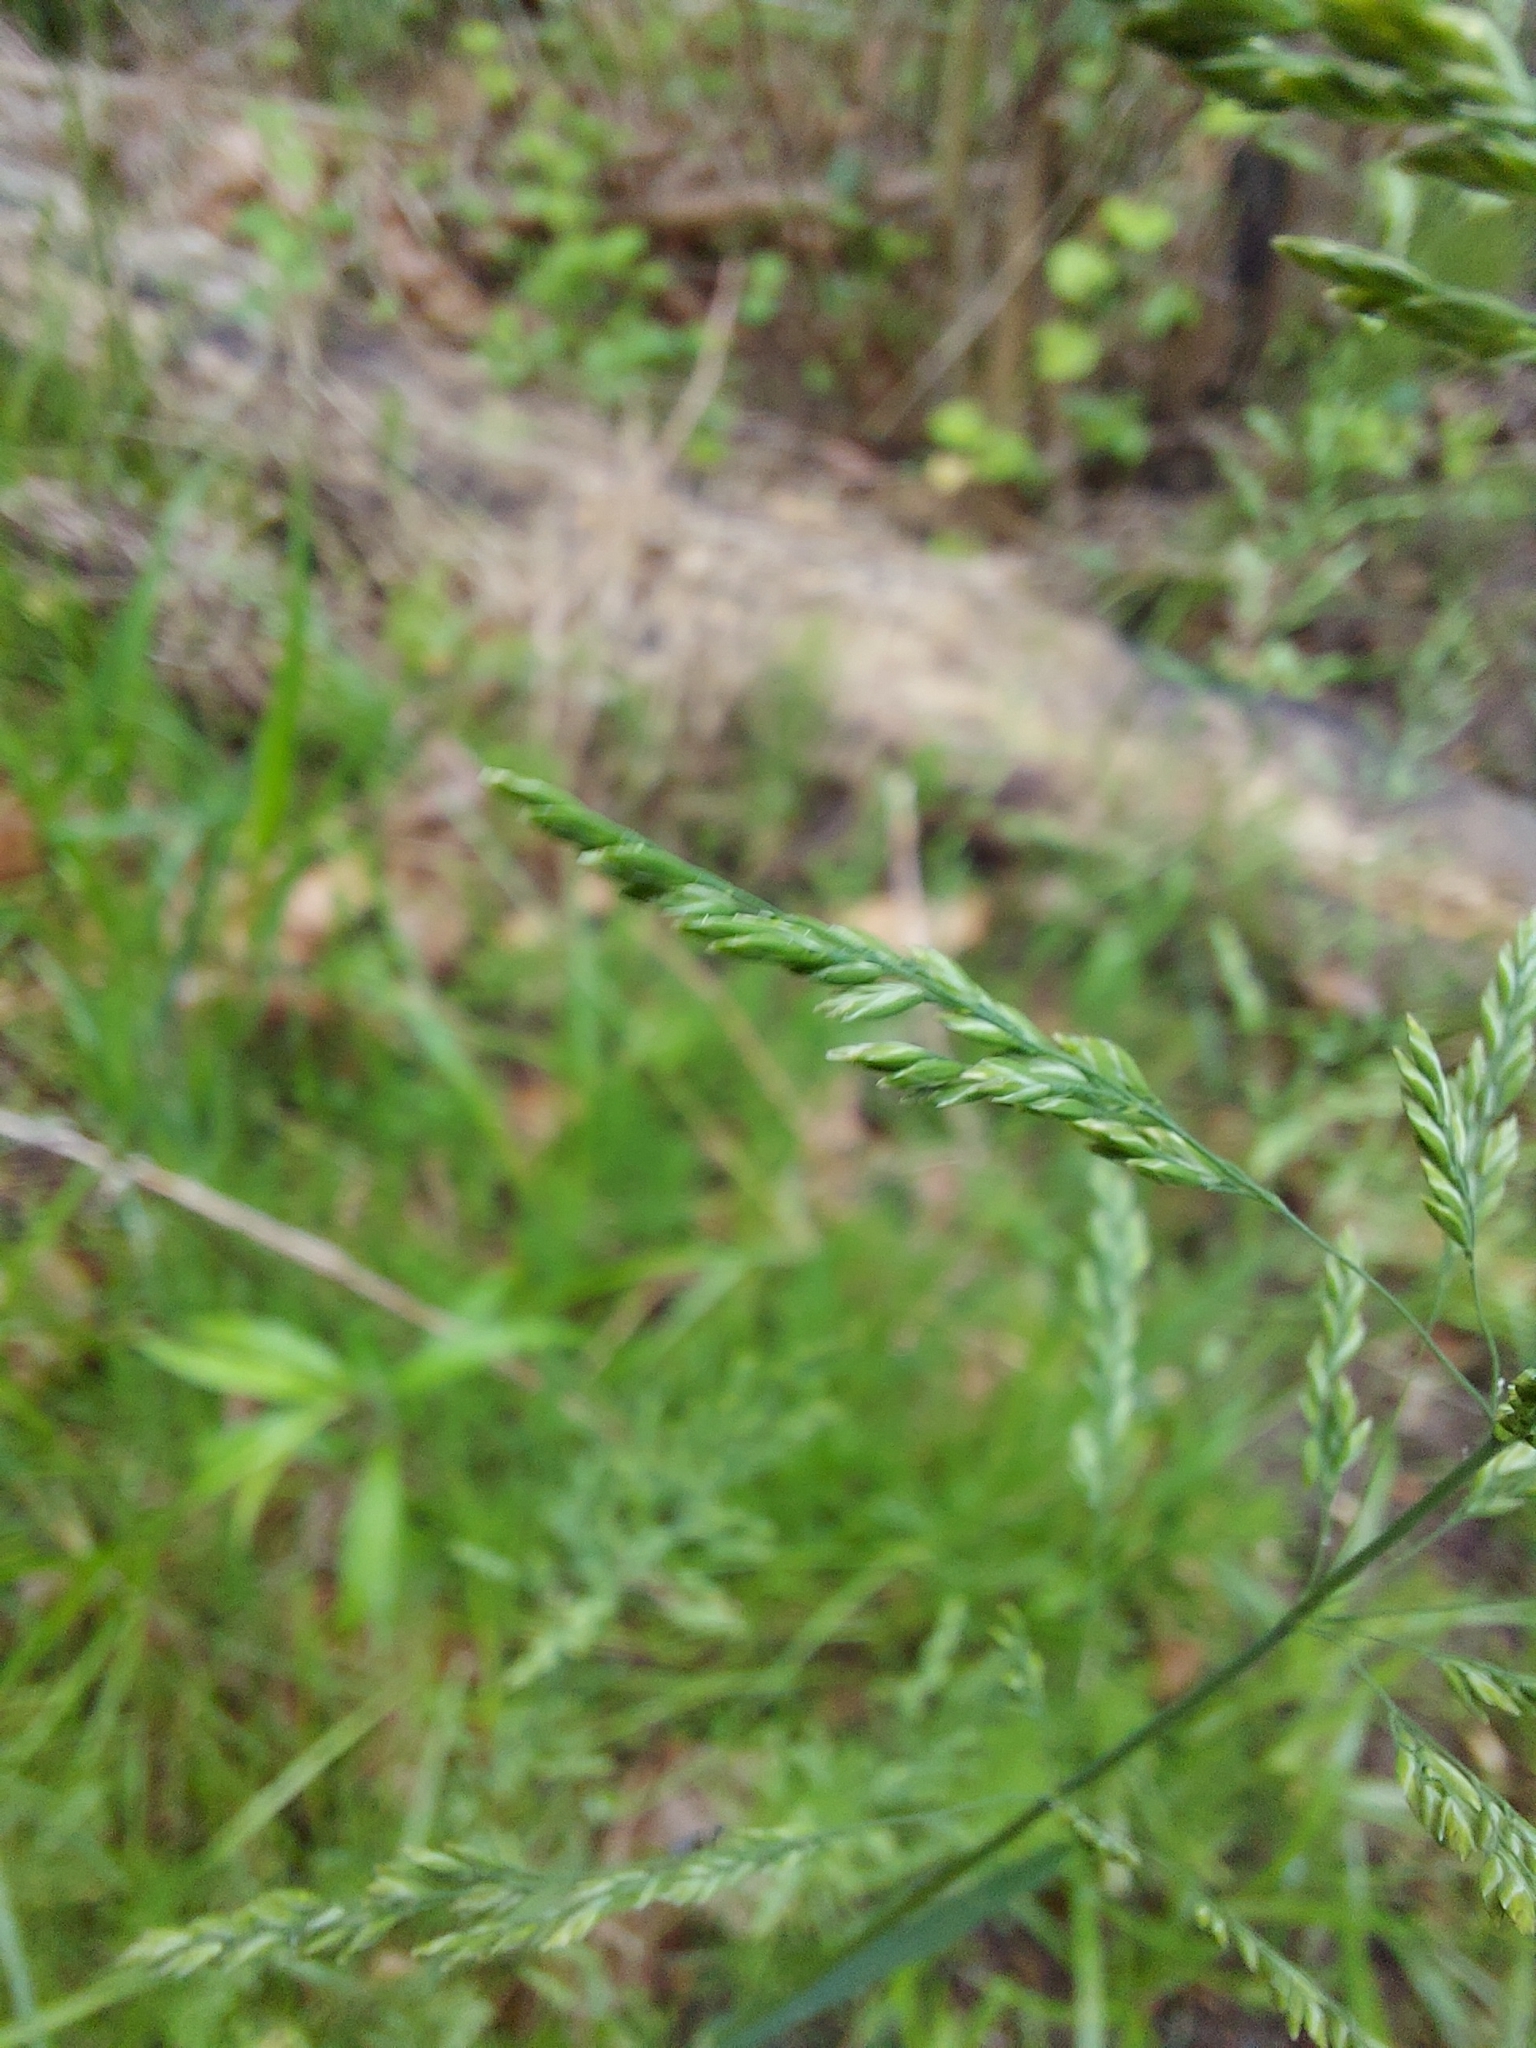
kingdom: Plantae
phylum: Tracheophyta
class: Liliopsida
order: Poales
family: Poaceae
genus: Poa
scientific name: Poa pratensis
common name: Kentucky bluegrass
